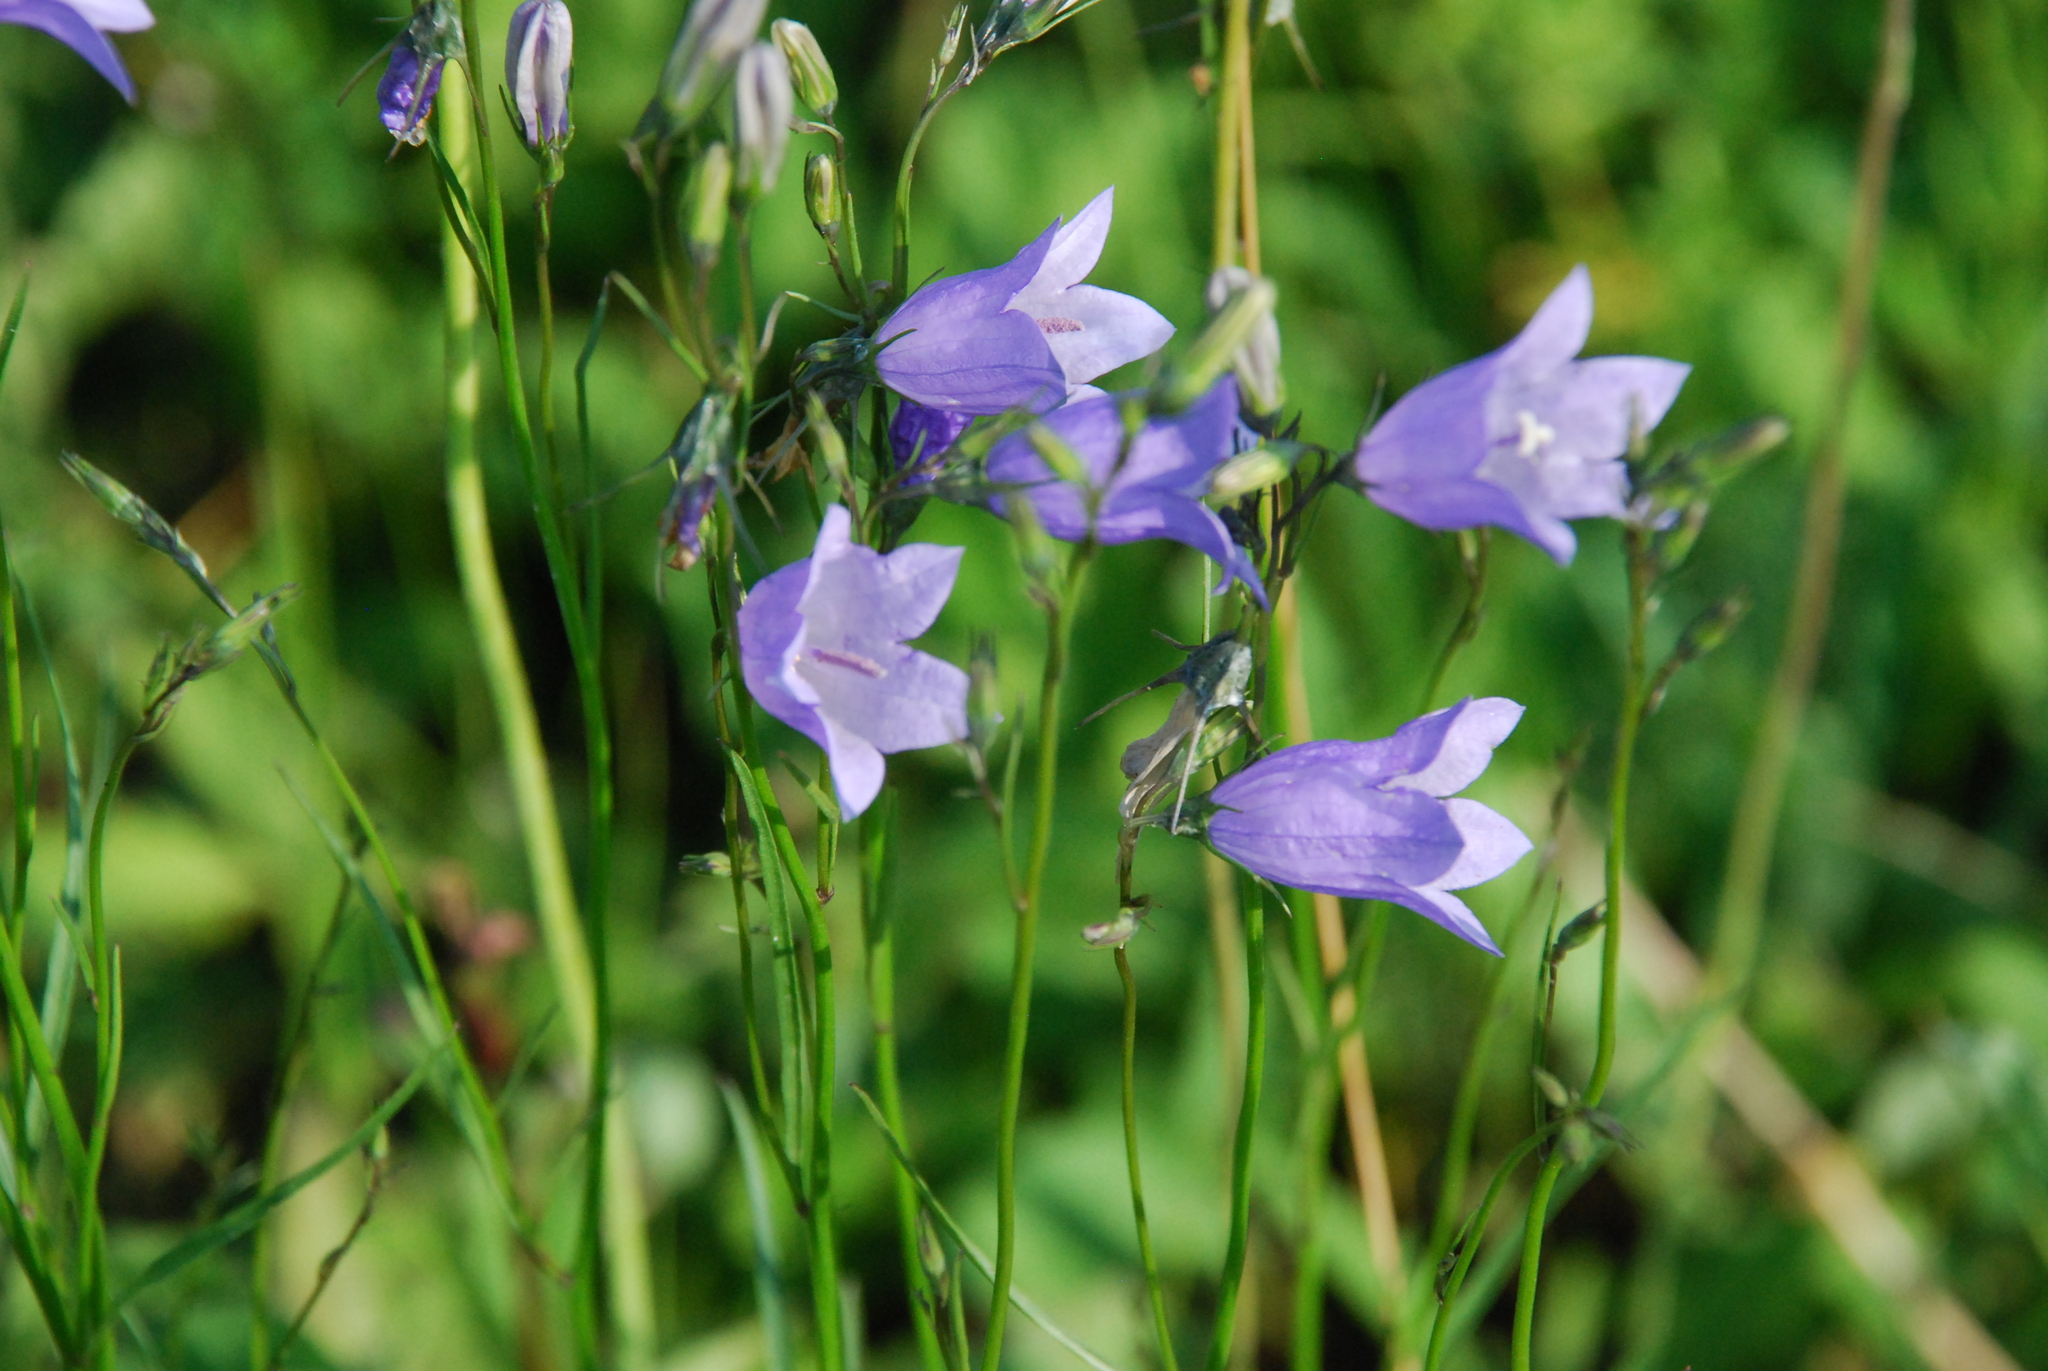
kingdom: Plantae
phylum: Tracheophyta
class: Magnoliopsida
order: Asterales
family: Campanulaceae
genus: Campanula
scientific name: Campanula rotundifolia
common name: Harebell
